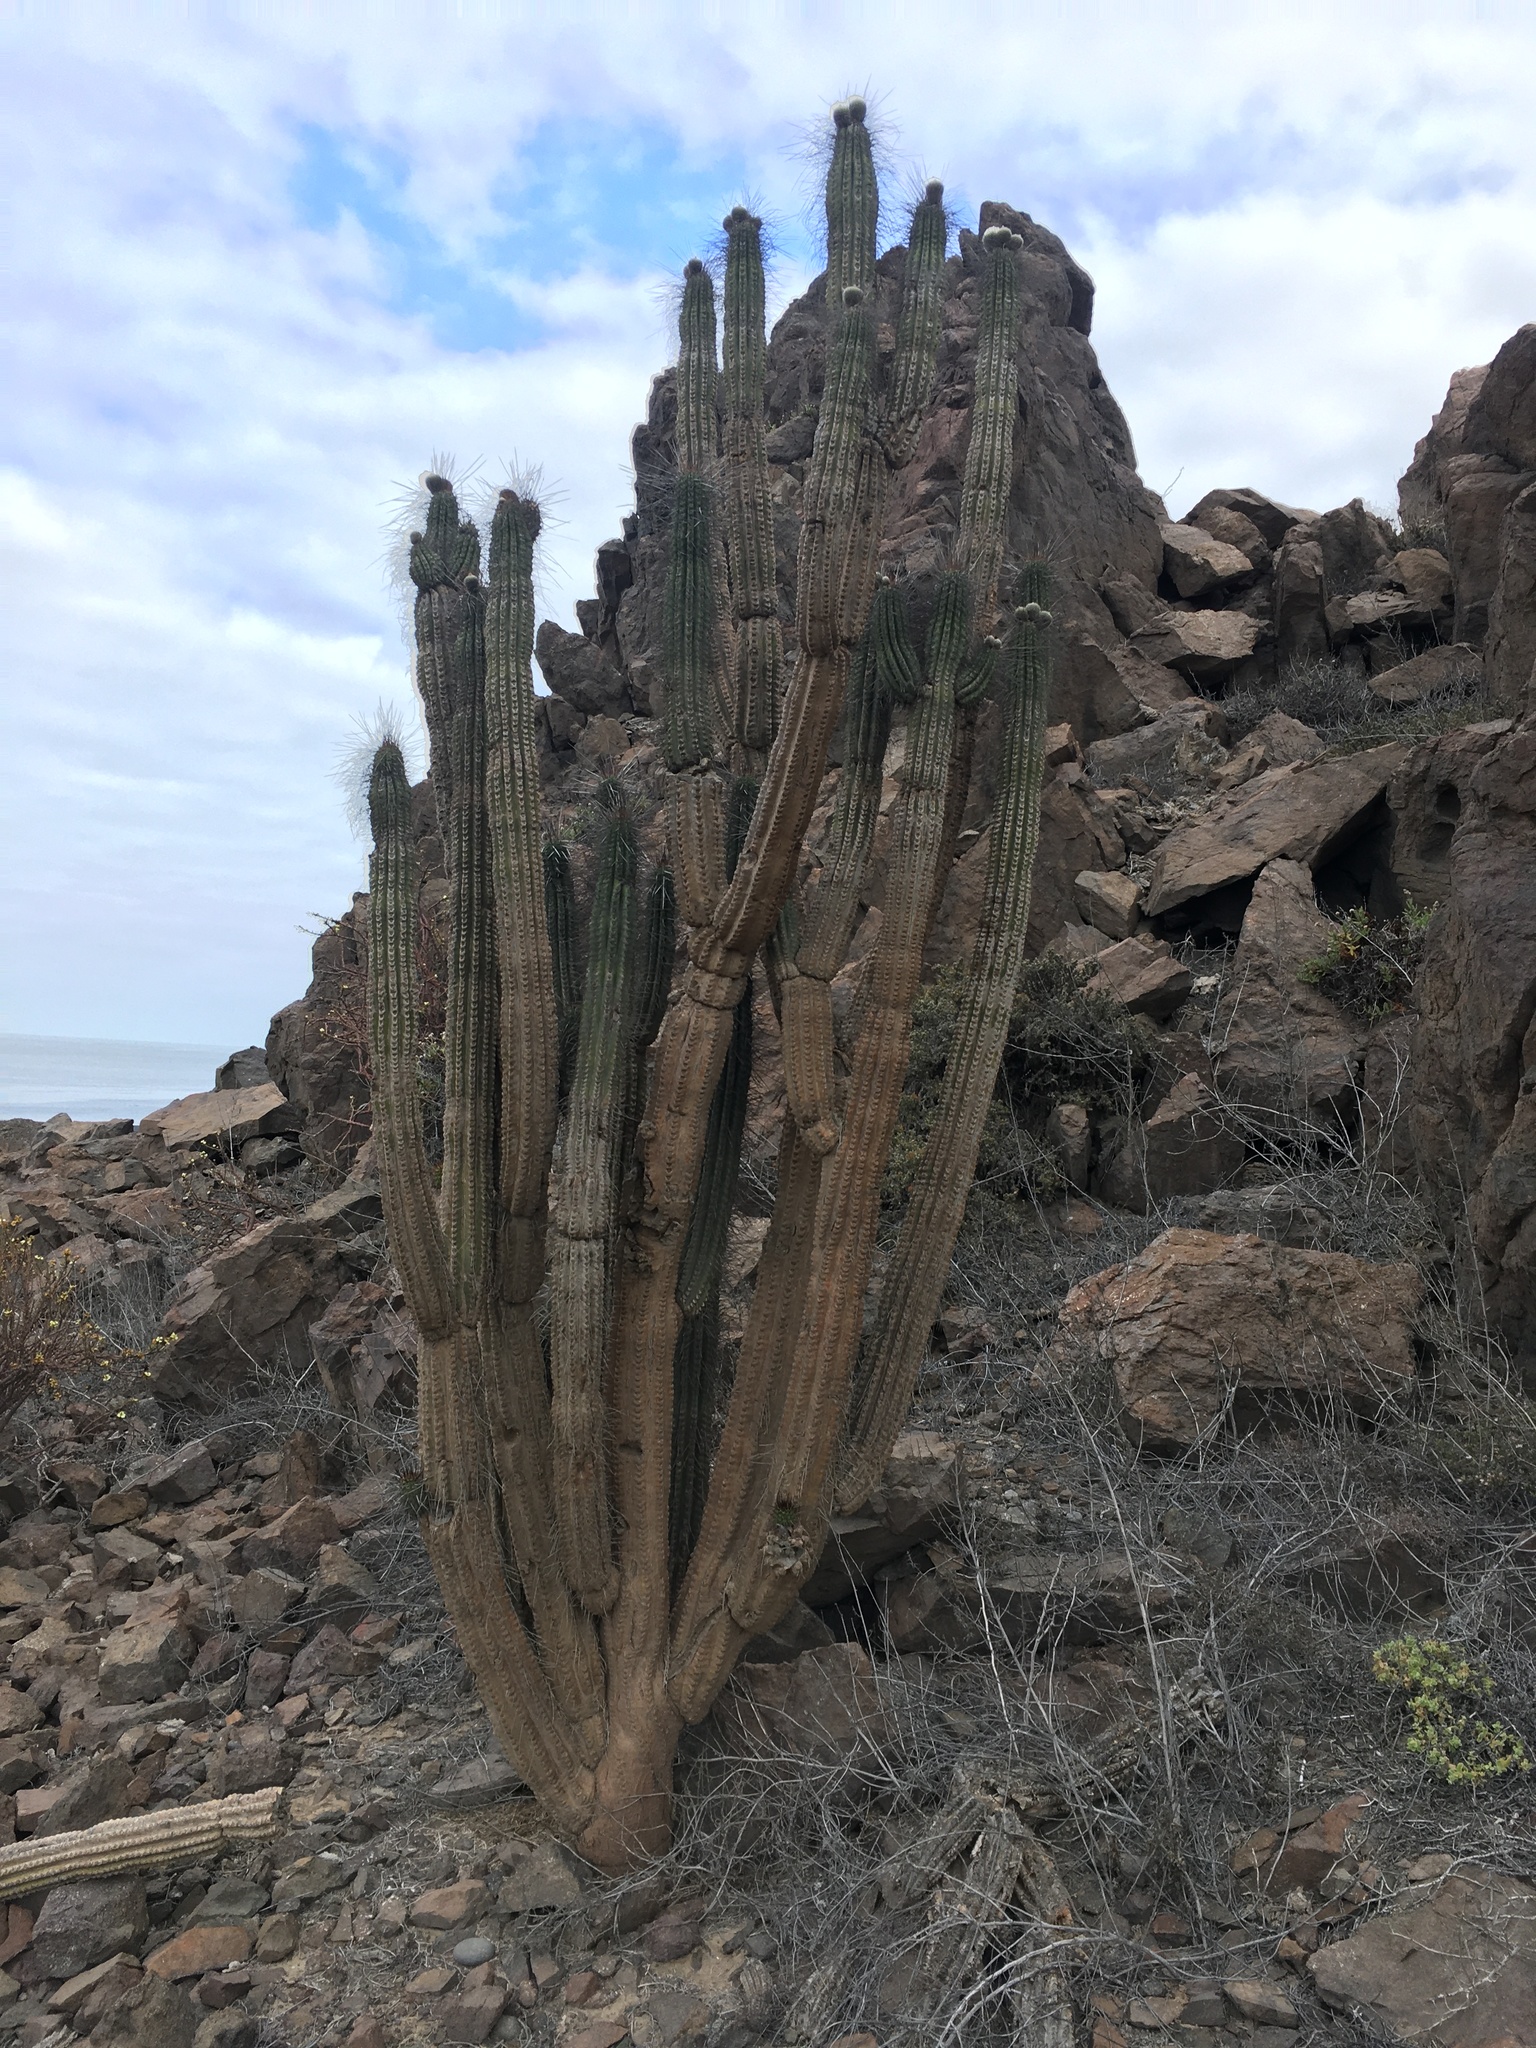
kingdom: Plantae
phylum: Tracheophyta
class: Magnoliopsida
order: Caryophyllales
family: Cactaceae
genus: Eulychnia
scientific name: Eulychnia iquiquensis
